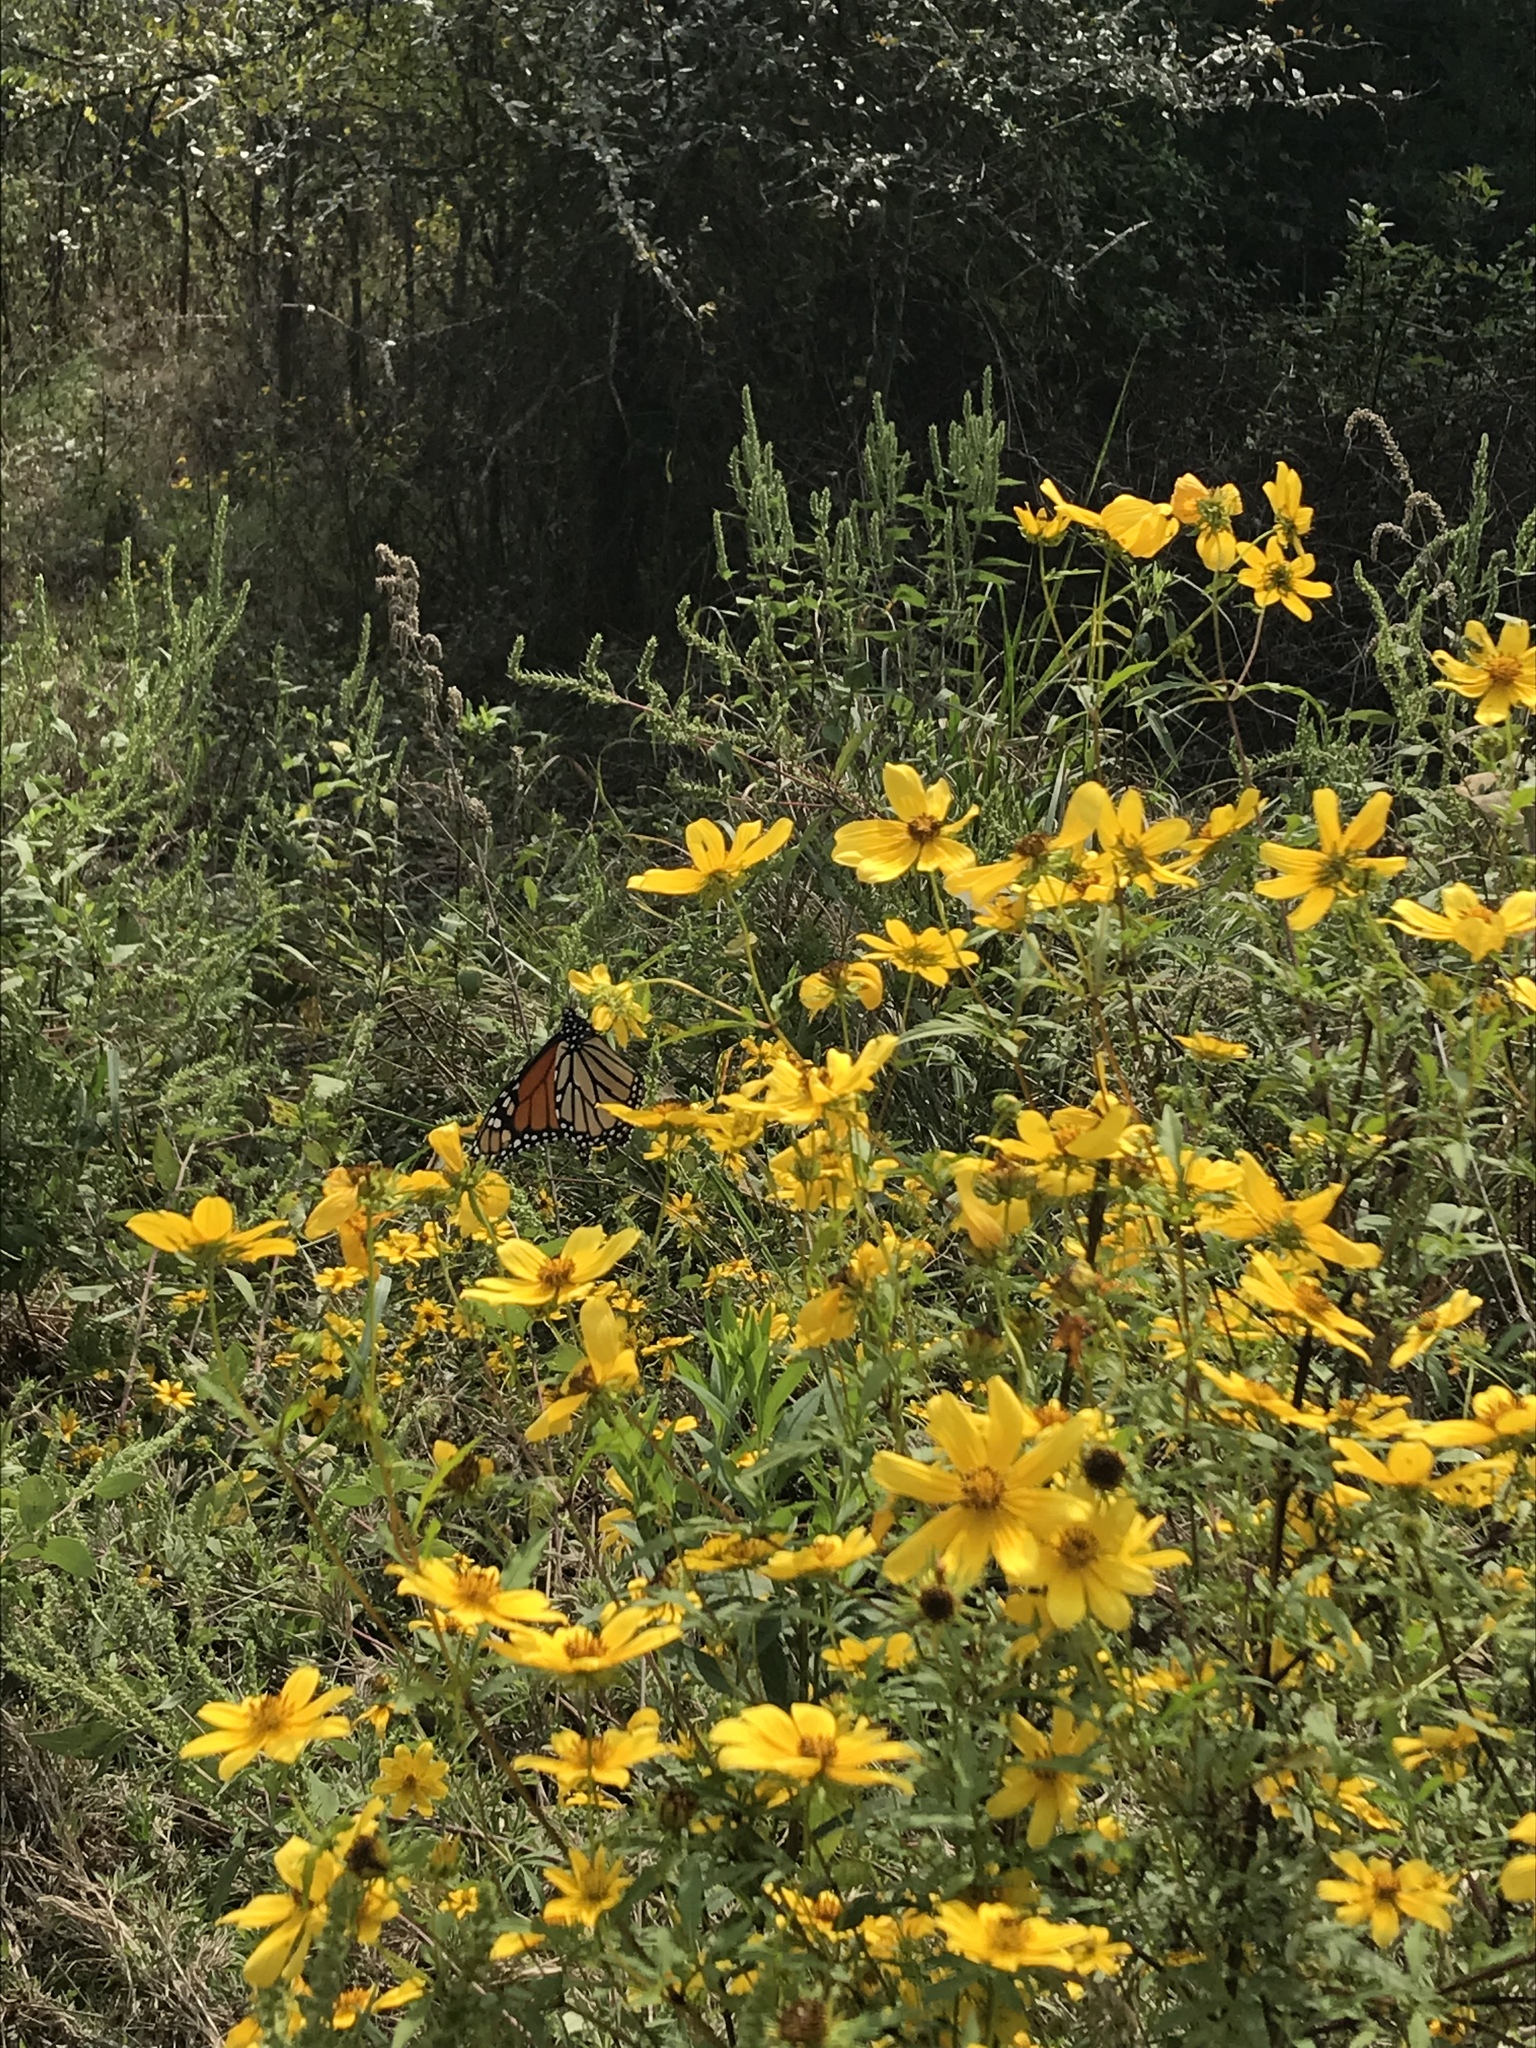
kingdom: Plantae
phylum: Tracheophyta
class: Magnoliopsida
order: Asterales
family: Asteraceae
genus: Bidens
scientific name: Bidens laevis
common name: Larger bur-marigold
